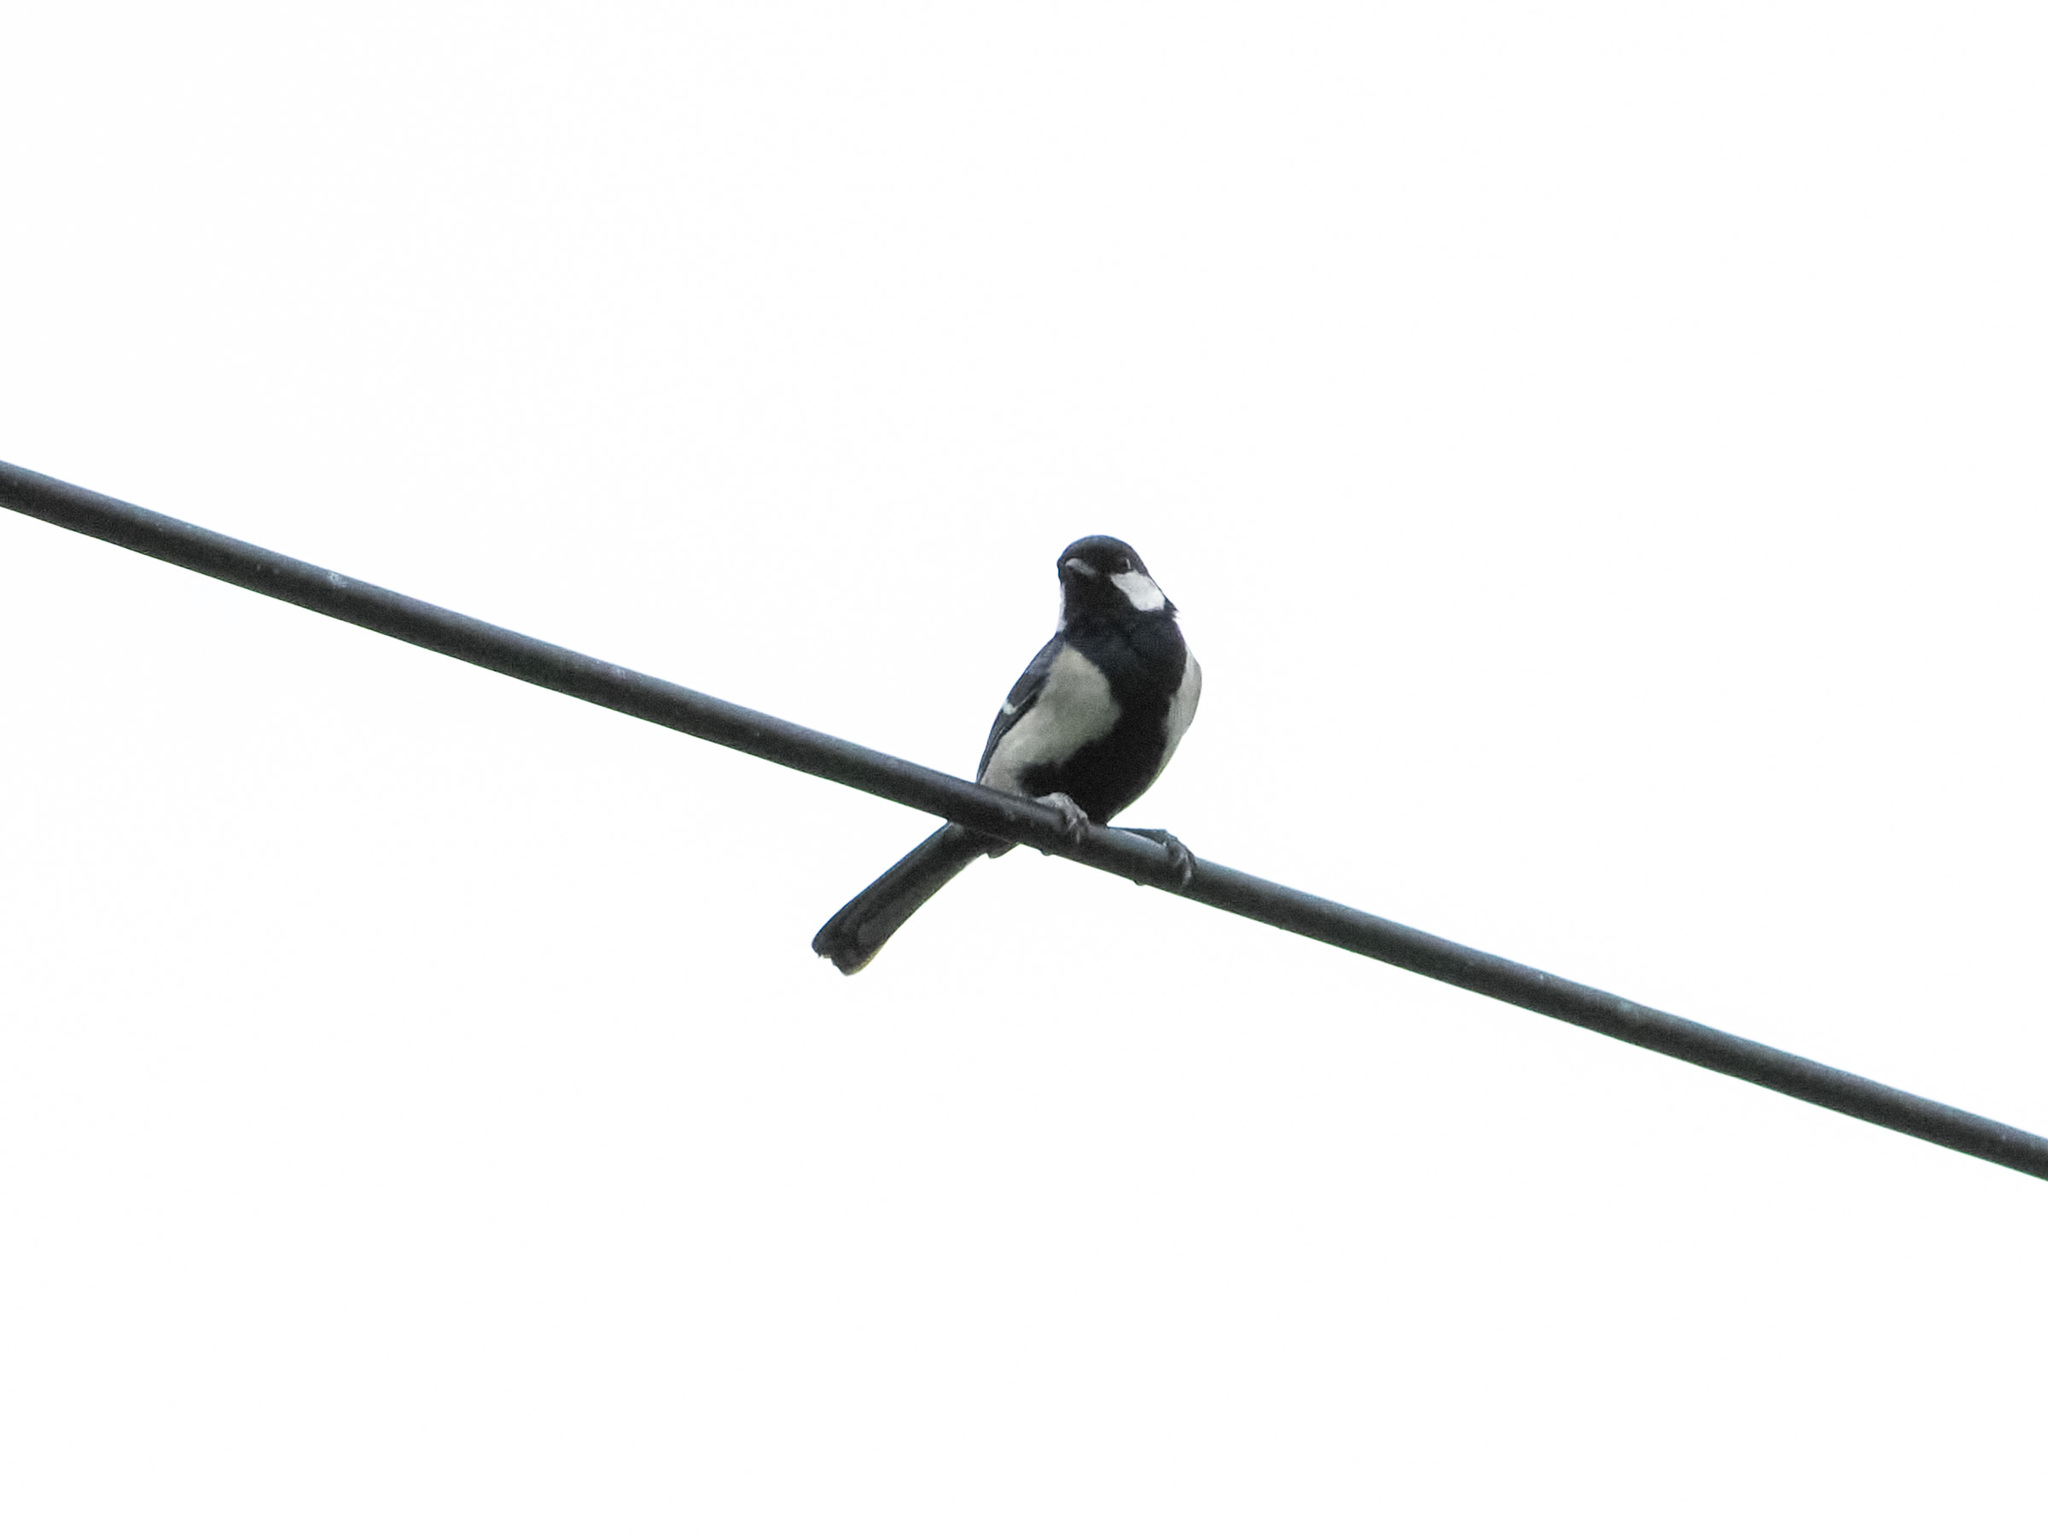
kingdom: Animalia
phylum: Chordata
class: Aves
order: Passeriformes
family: Paridae
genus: Parus
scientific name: Parus cinereus
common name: Cinereous tit
